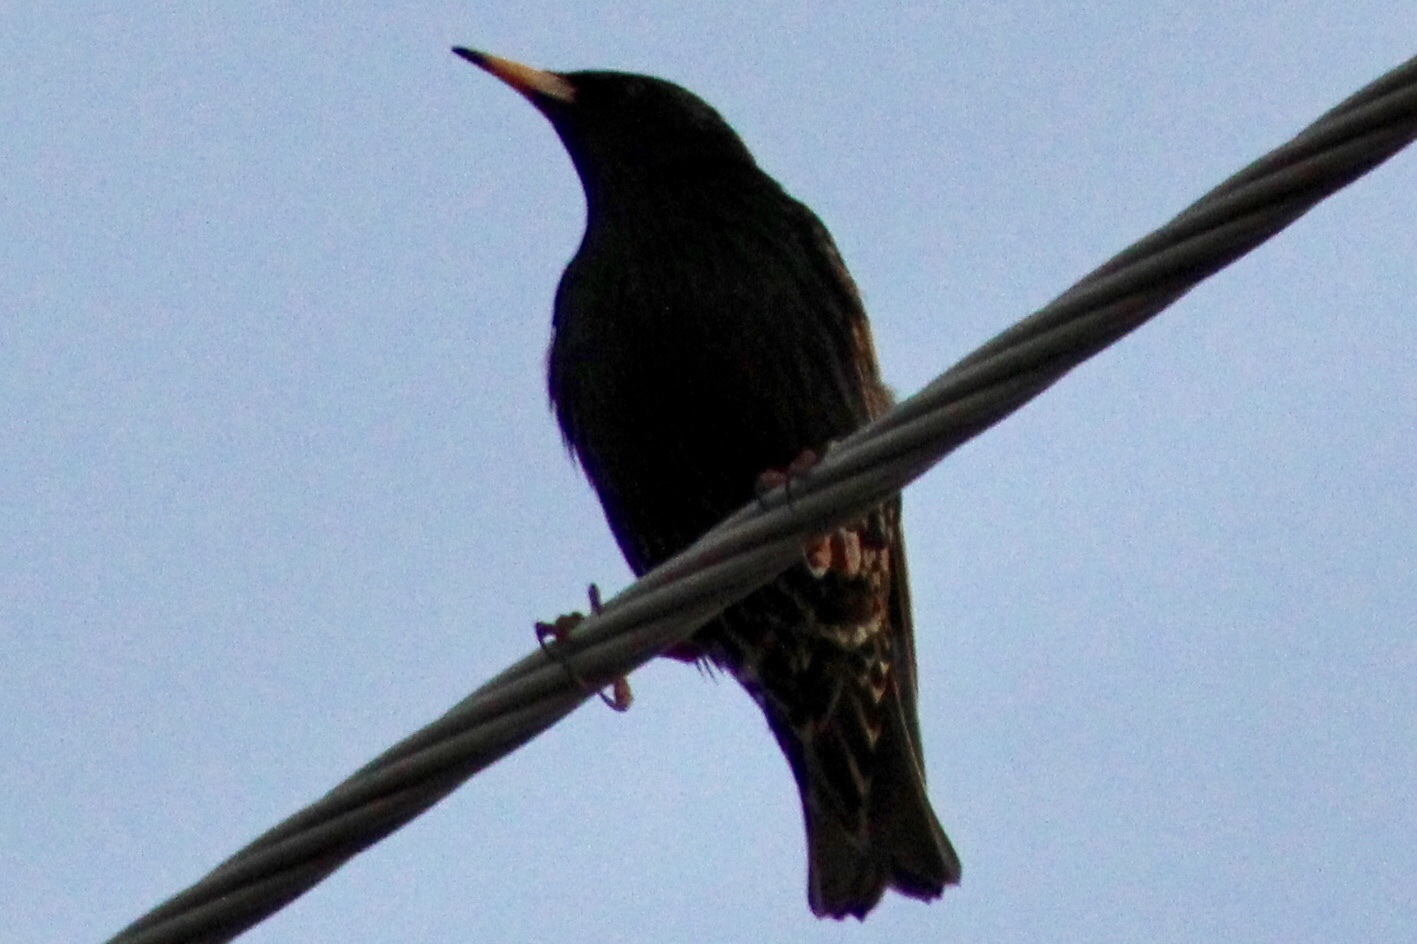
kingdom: Animalia
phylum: Chordata
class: Aves
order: Passeriformes
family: Sturnidae
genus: Sturnus
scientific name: Sturnus vulgaris
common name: Common starling
